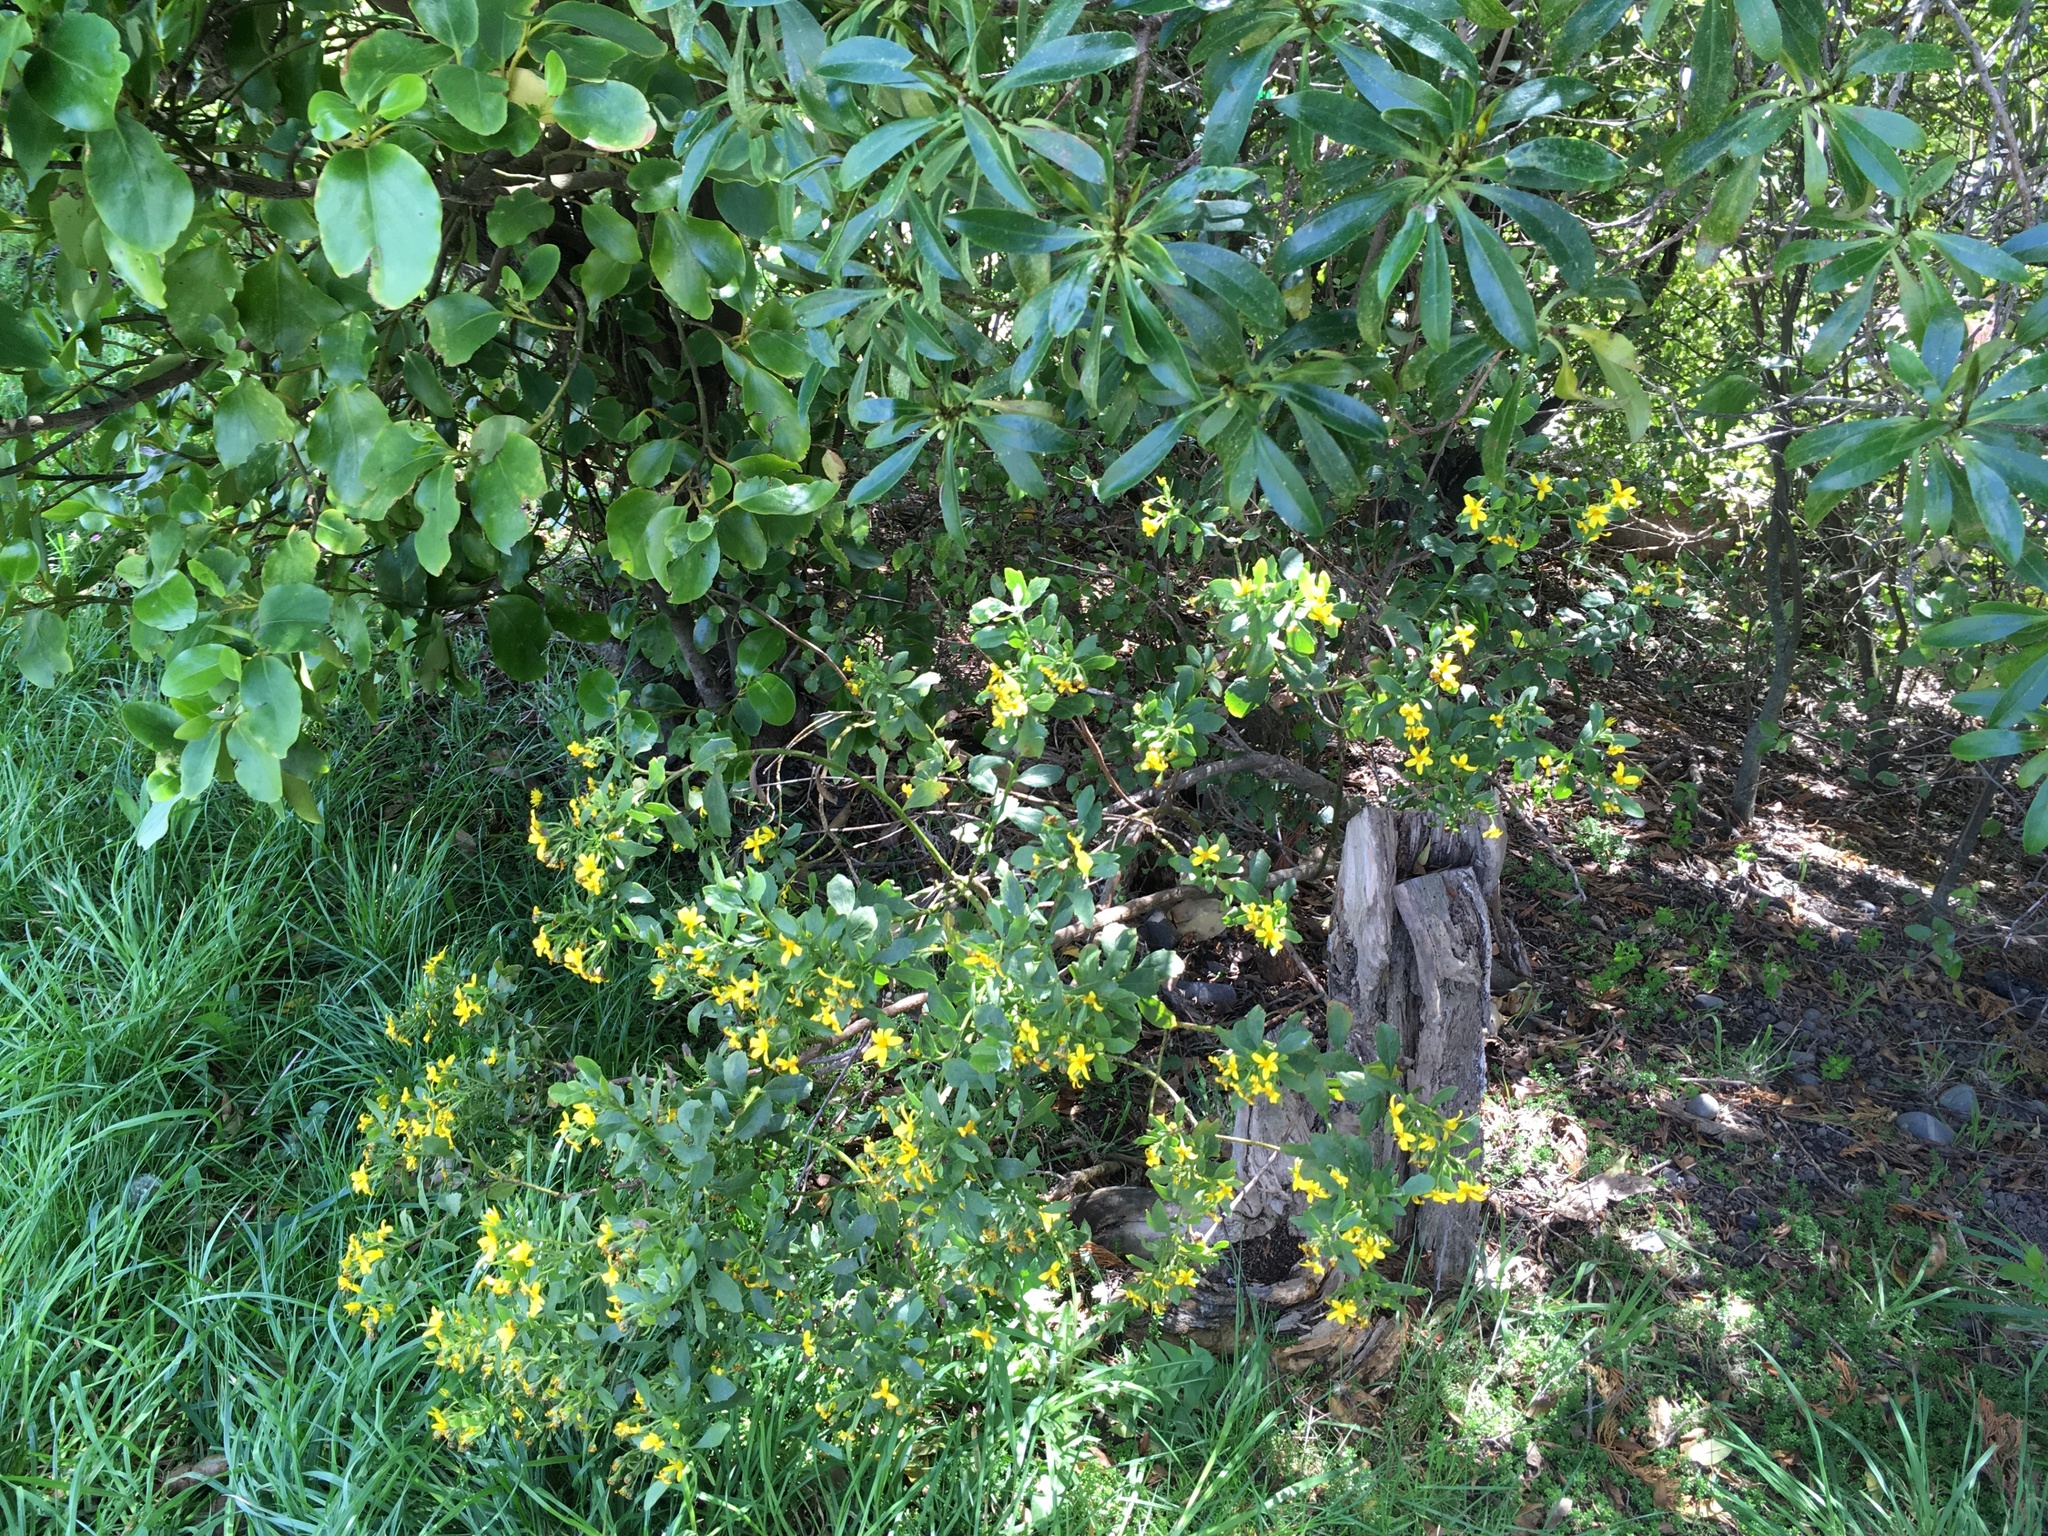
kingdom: Plantae
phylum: Tracheophyta
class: Magnoliopsida
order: Asterales
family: Asteraceae
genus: Osteospermum
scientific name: Osteospermum moniliferum
